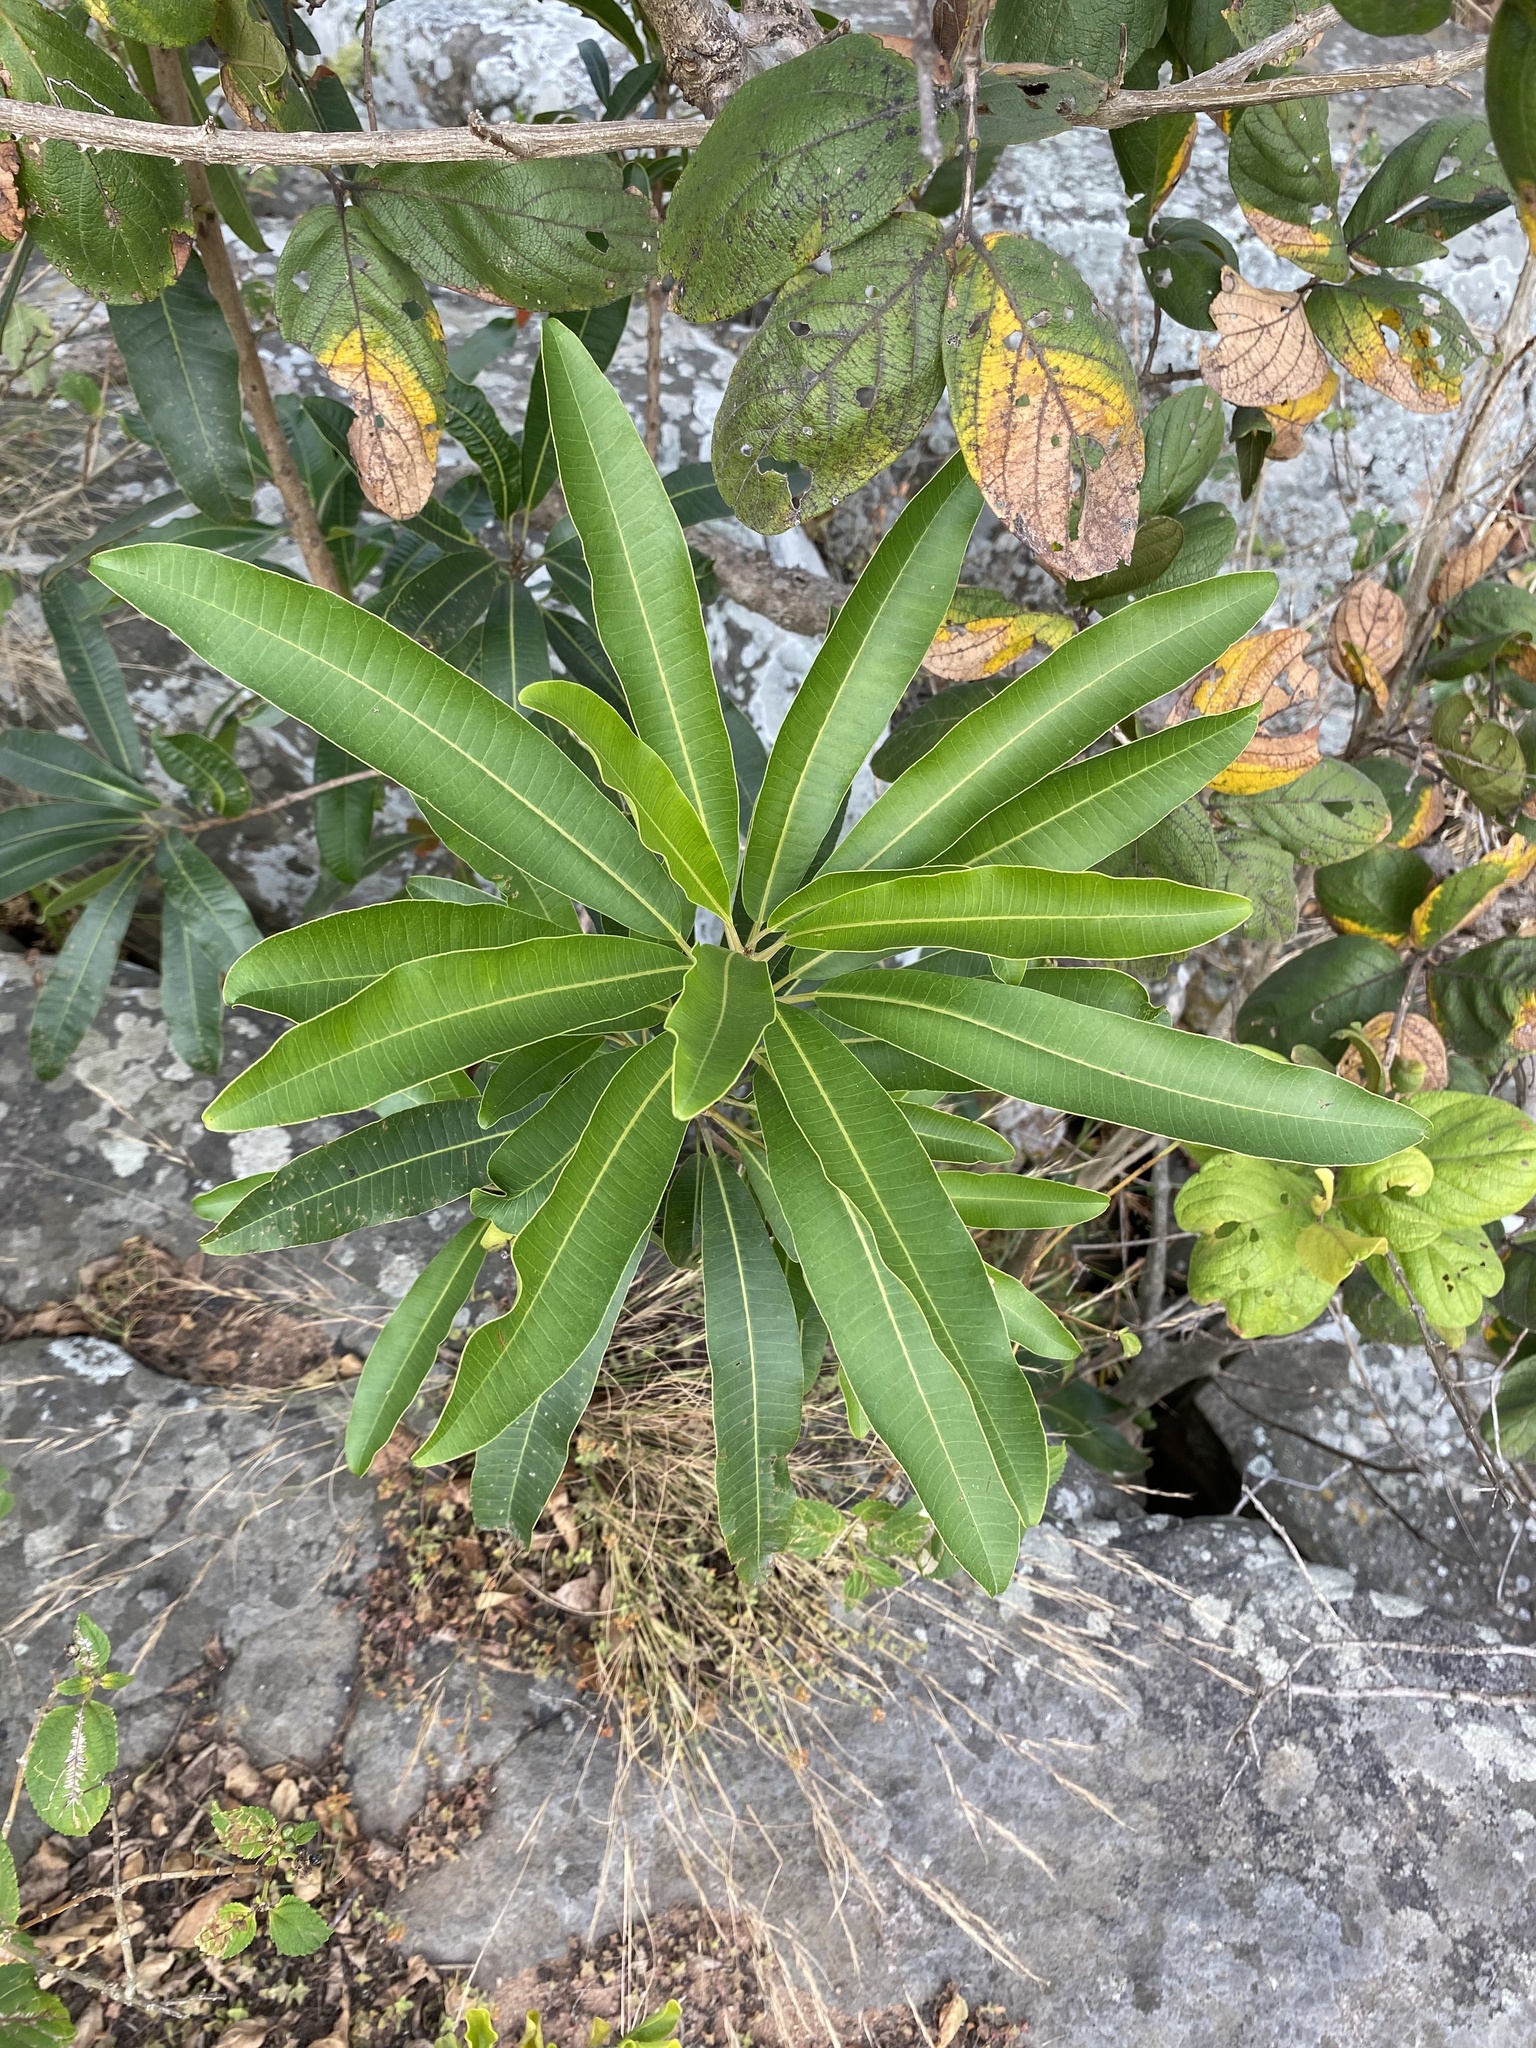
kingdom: Plantae
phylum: Tracheophyta
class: Magnoliopsida
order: Sapindales
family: Anacardiaceae
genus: Protorhus
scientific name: Protorhus longifolia
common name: Red-beech
